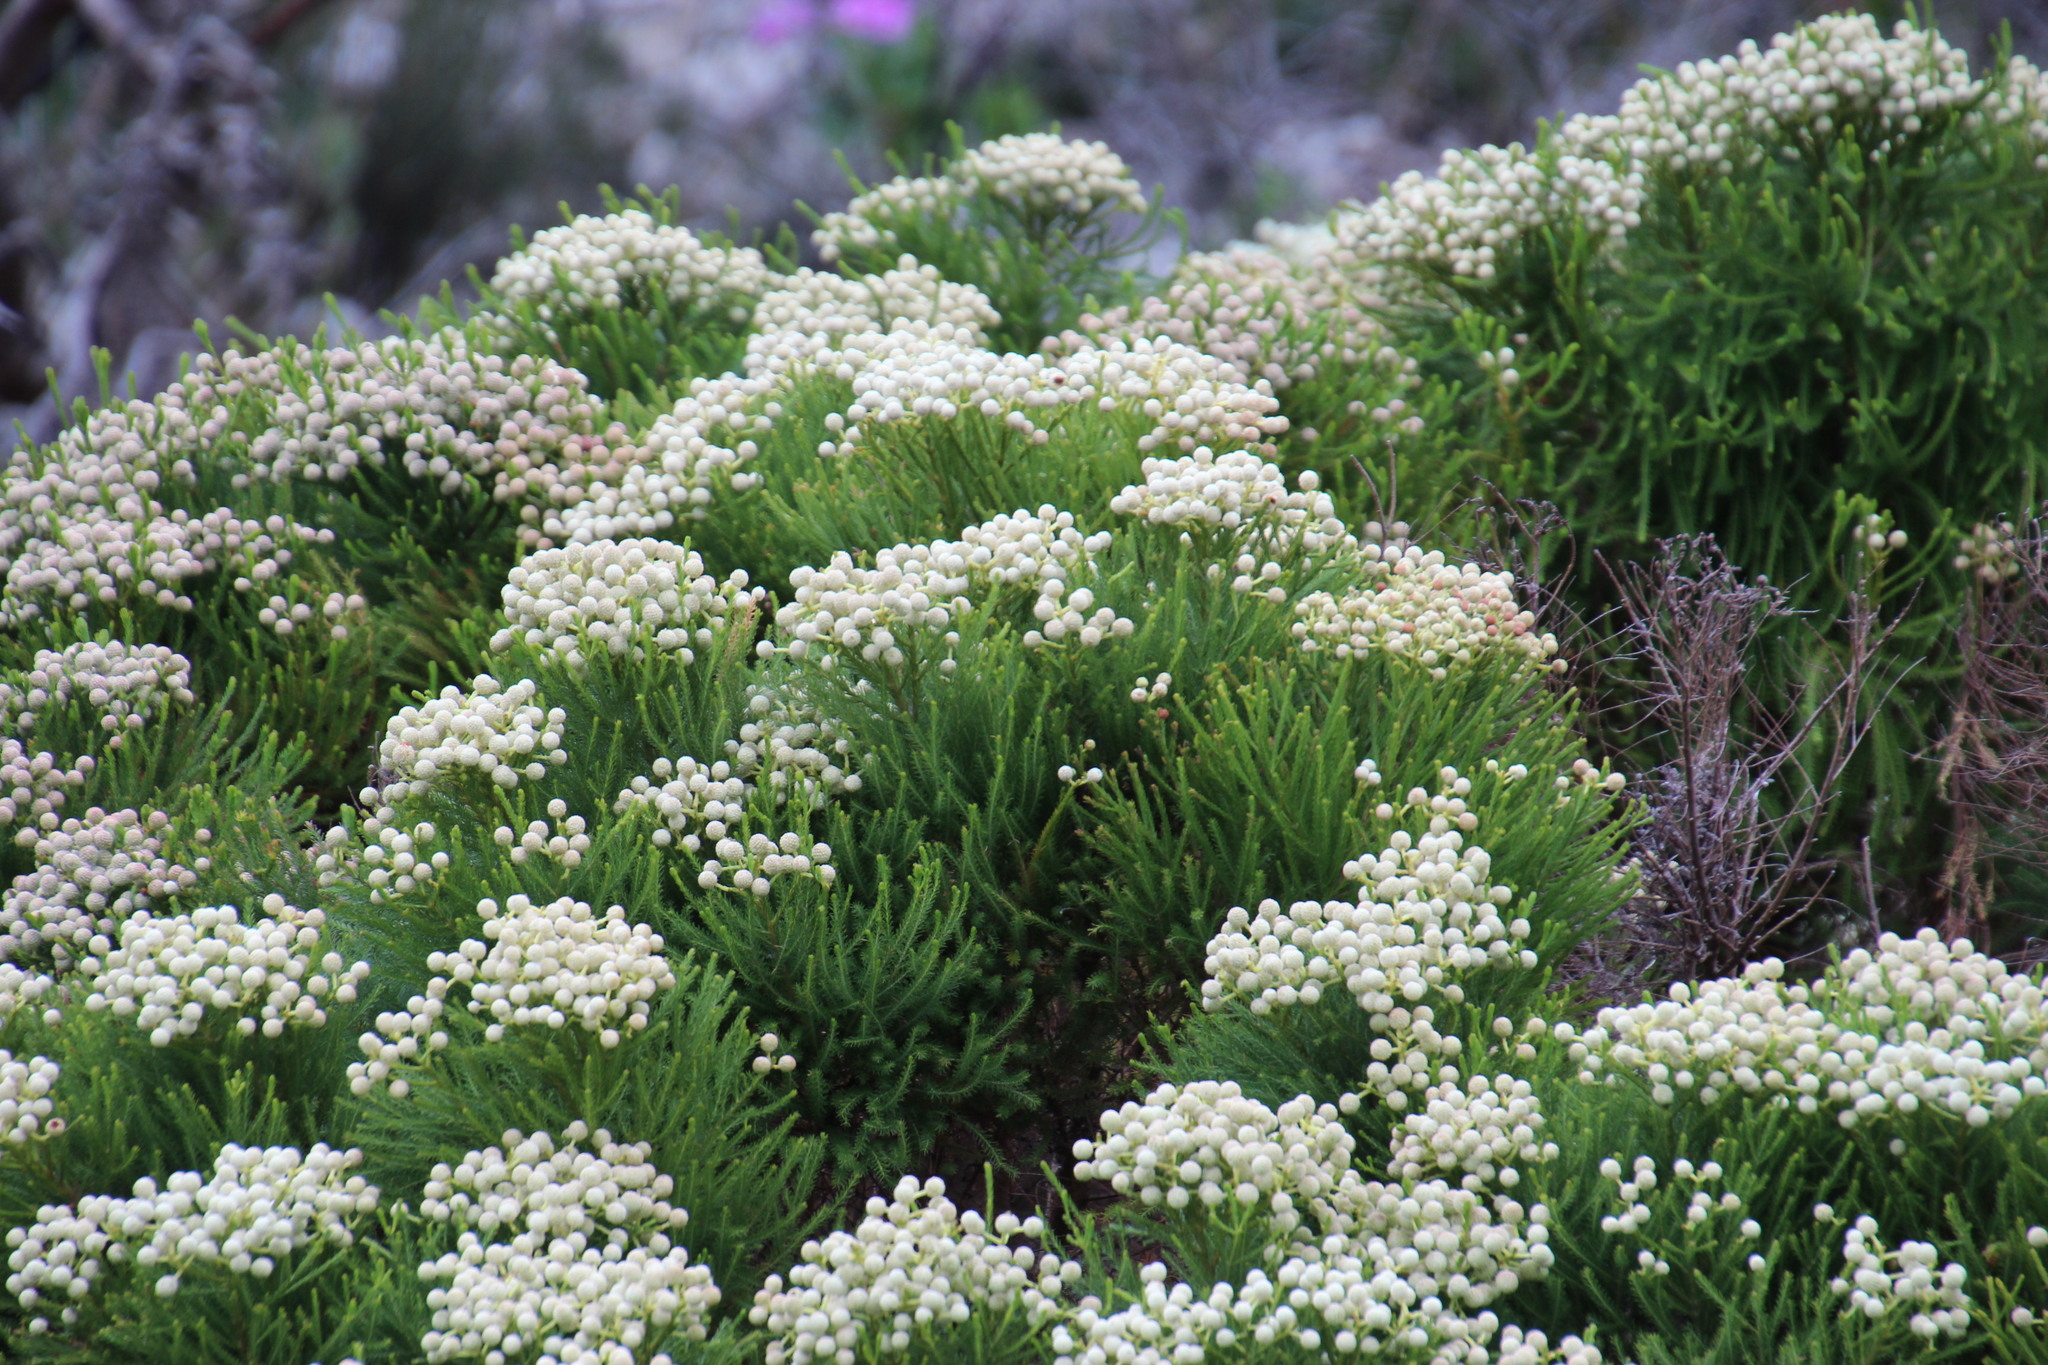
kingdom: Plantae
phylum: Tracheophyta
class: Magnoliopsida
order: Bruniales
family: Bruniaceae
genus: Berzelia
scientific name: Berzelia lanuginosa
